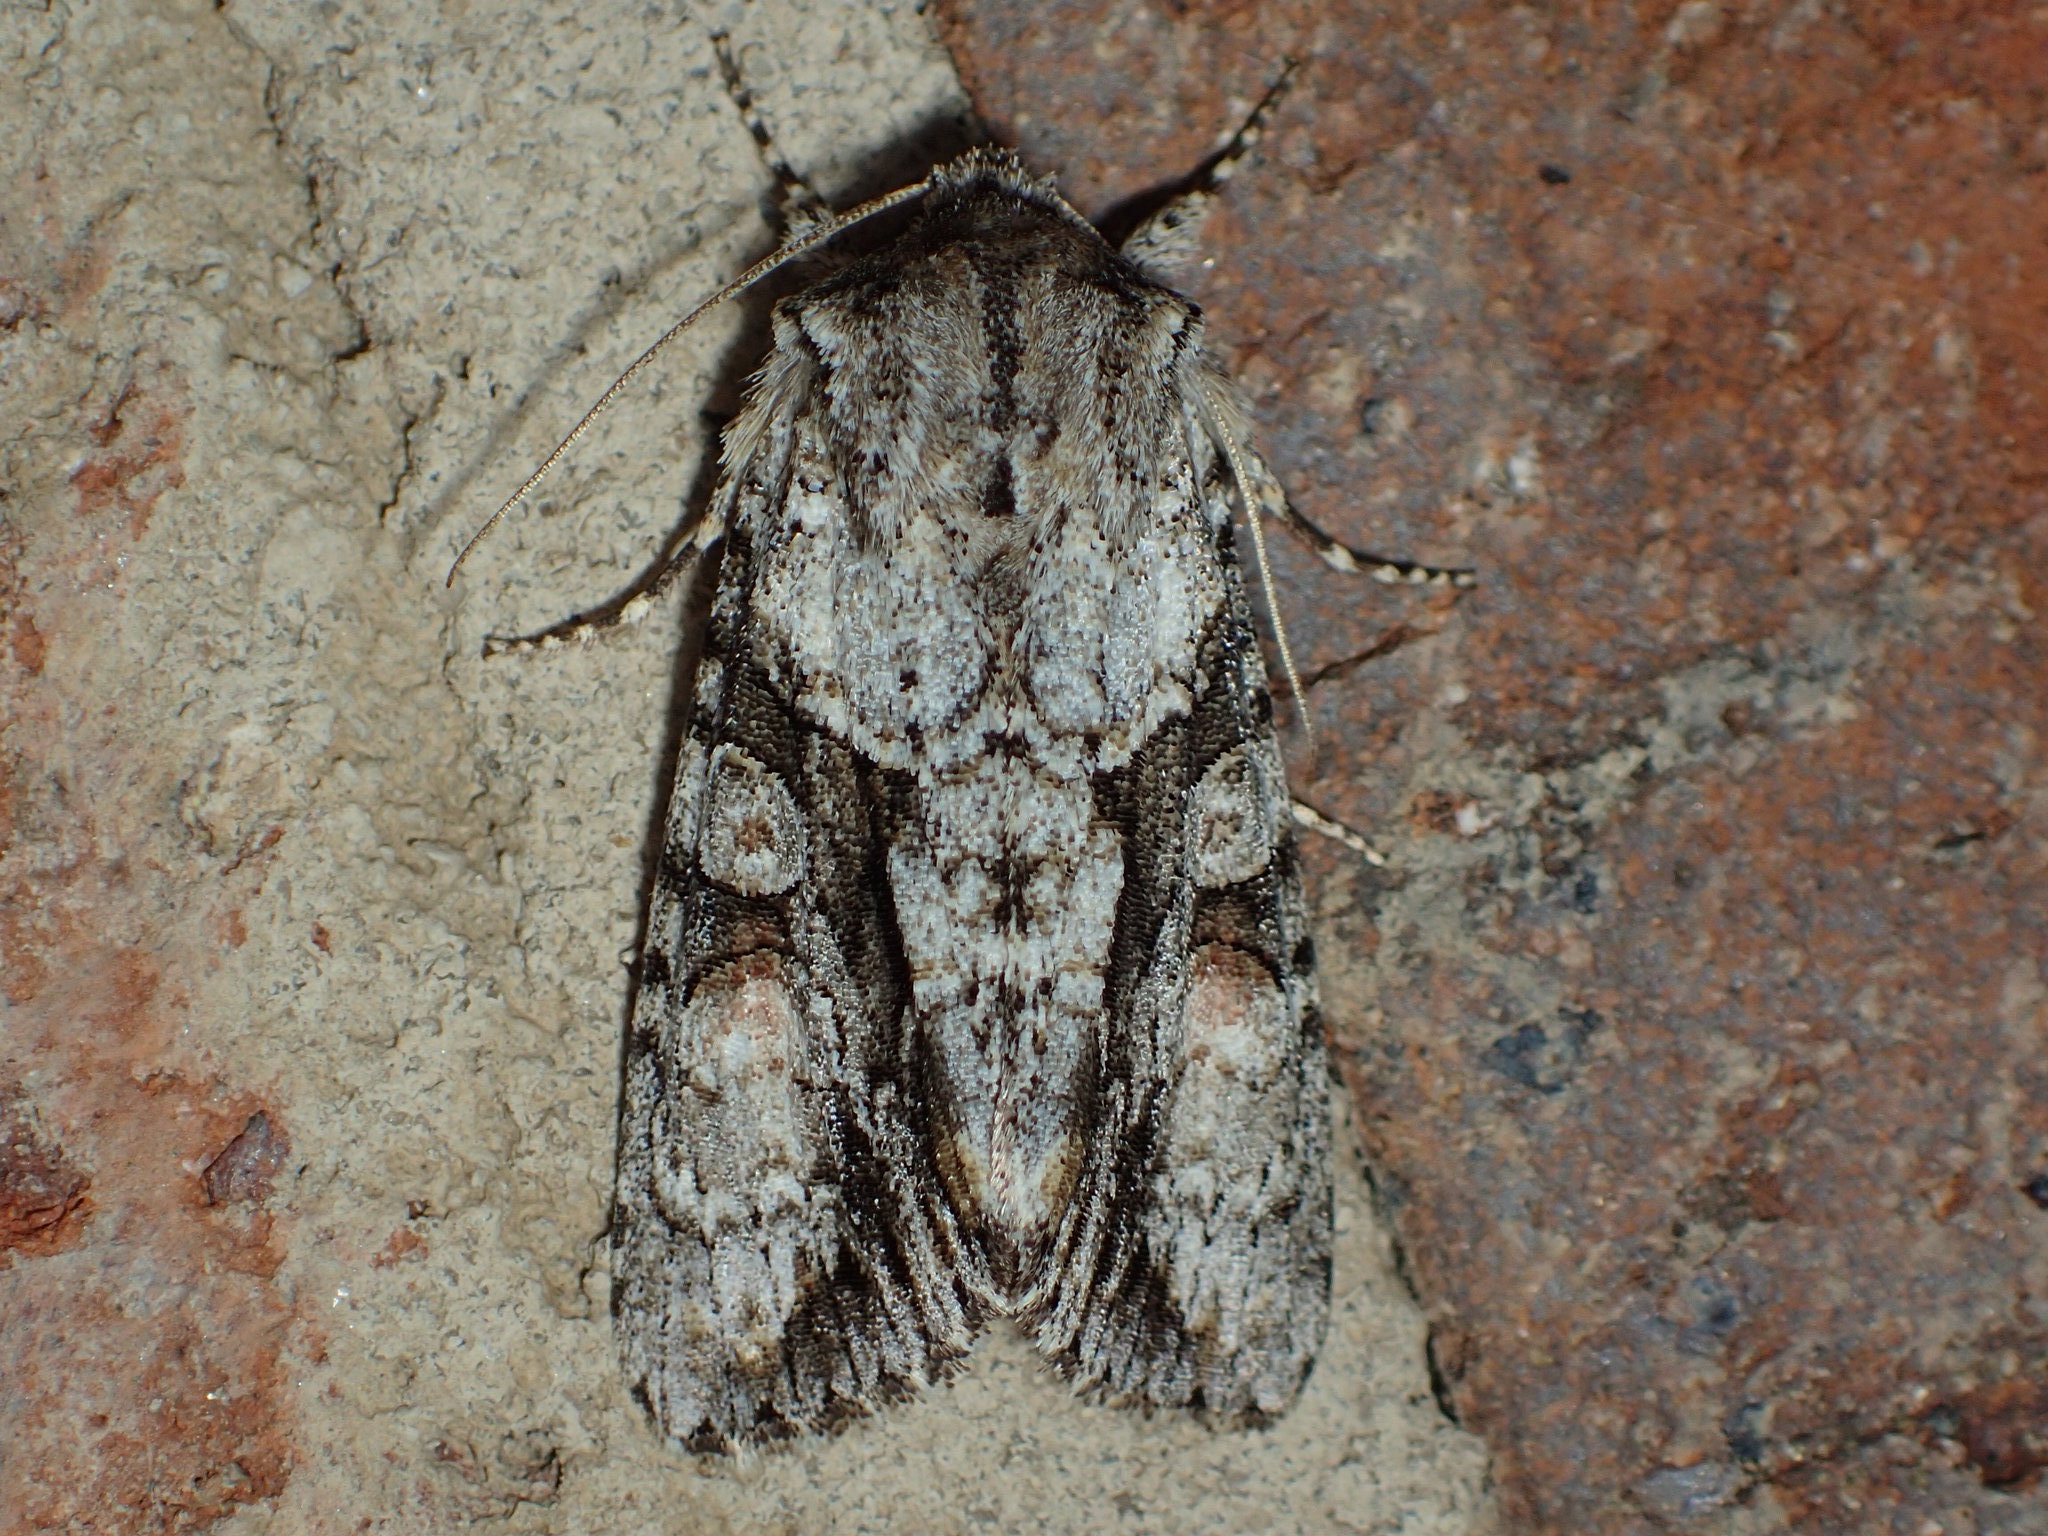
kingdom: Animalia
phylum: Arthropoda
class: Insecta
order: Lepidoptera
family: Noctuidae
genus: Achatia
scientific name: Achatia distincta
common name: Distinct quaker
